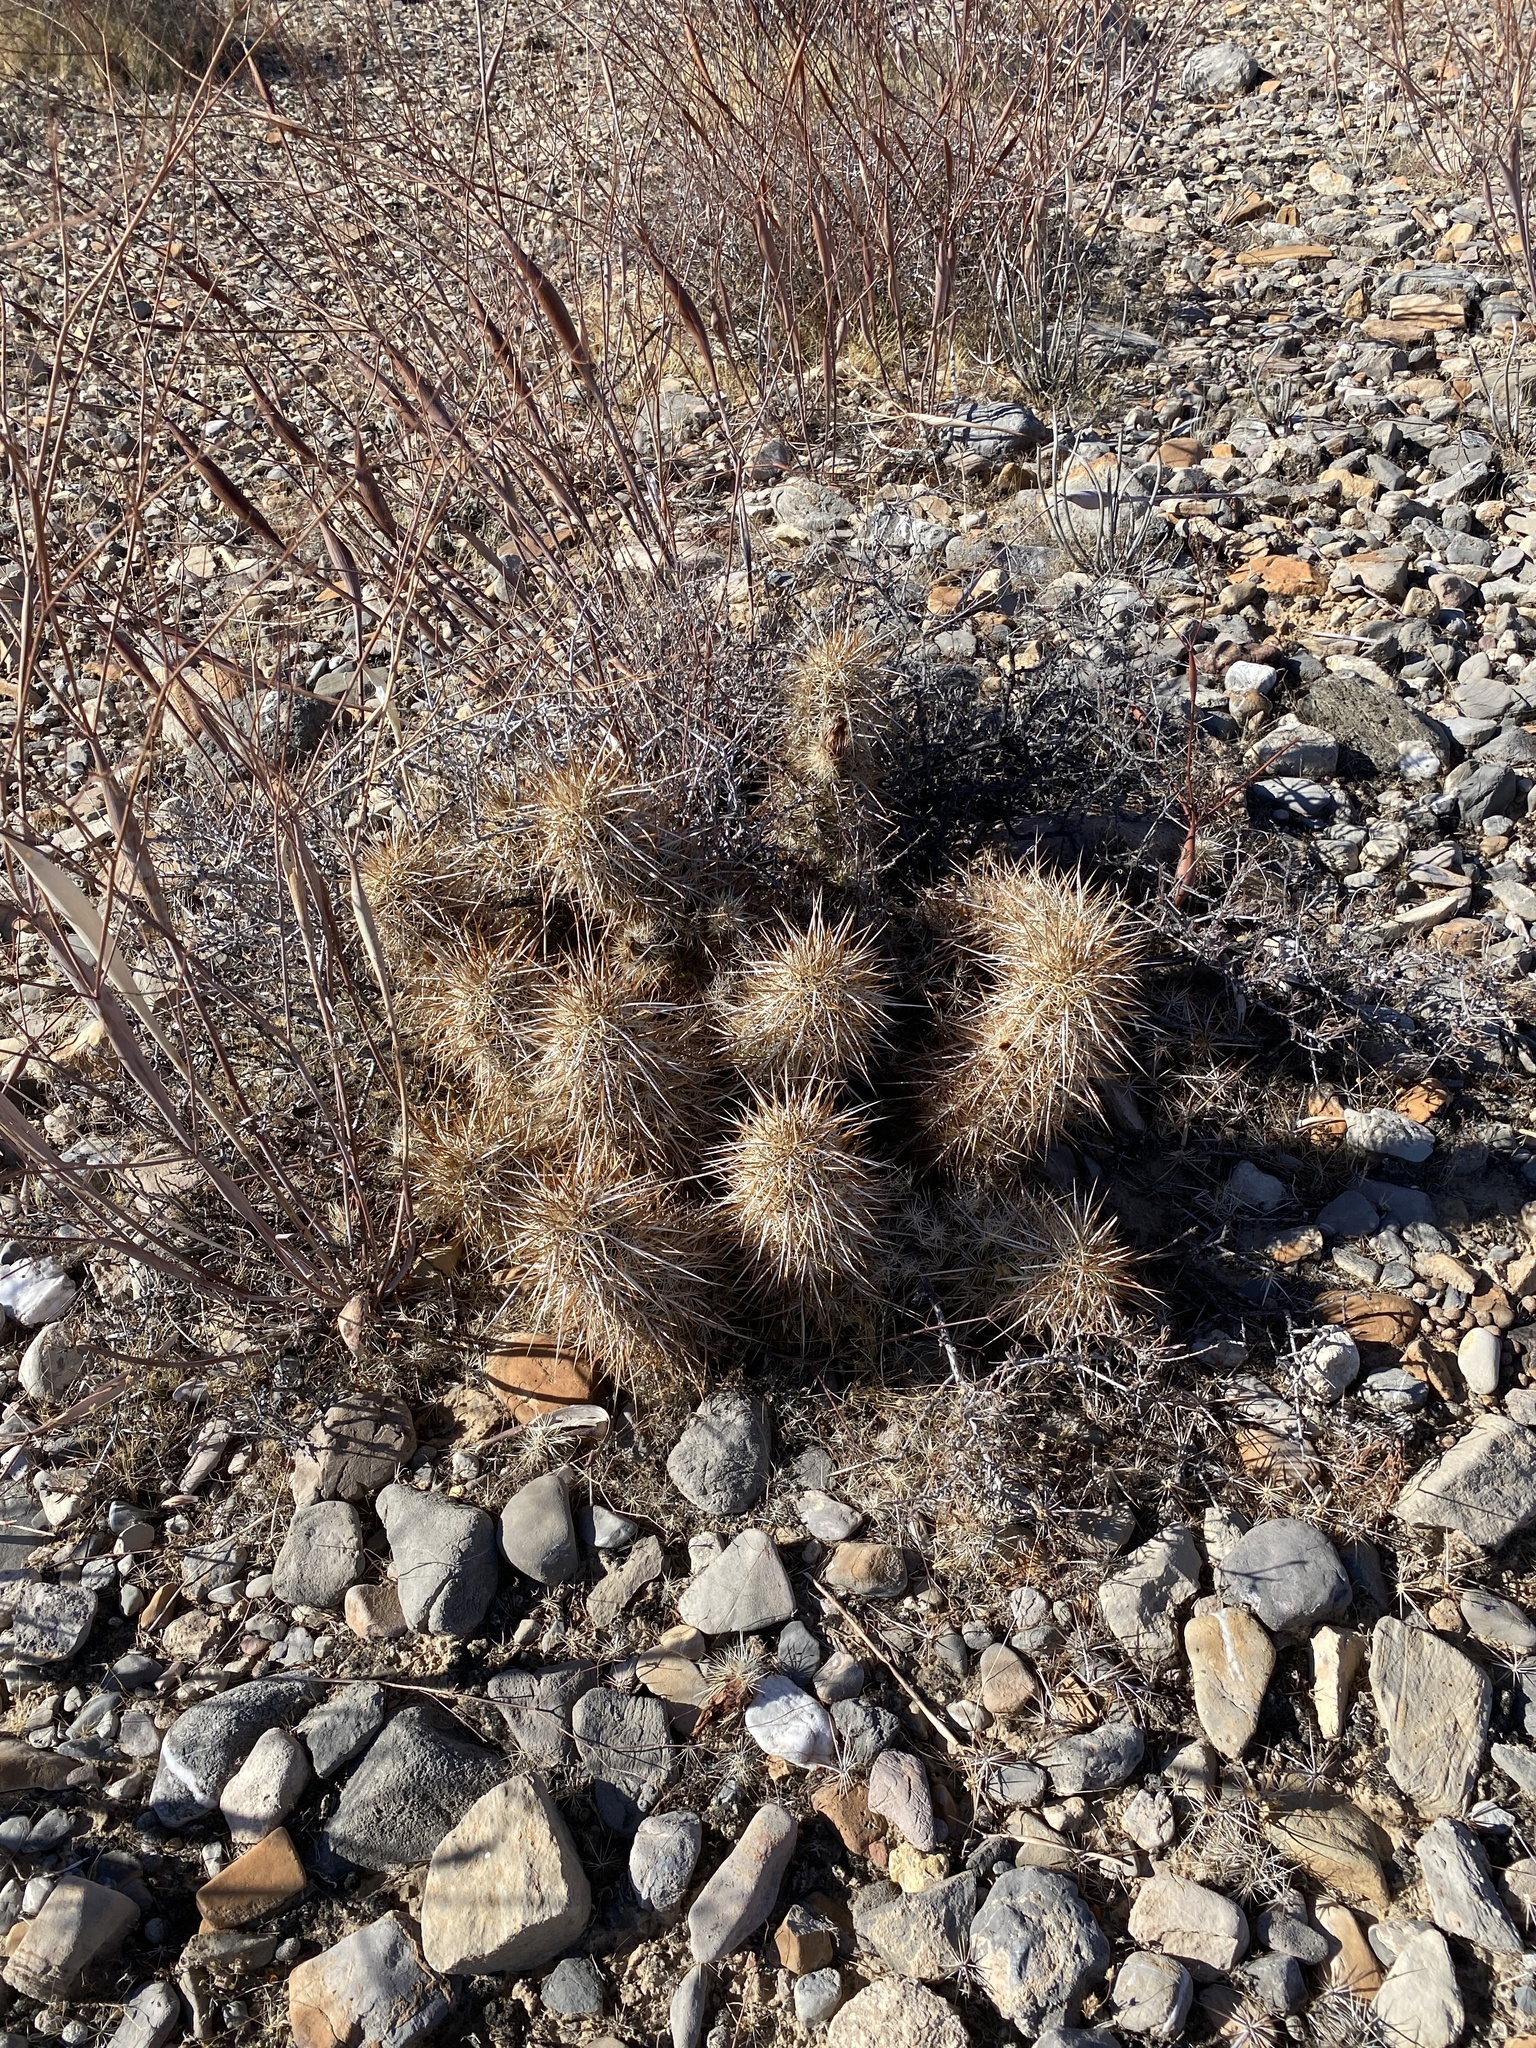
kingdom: Plantae
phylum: Tracheophyta
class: Magnoliopsida
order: Caryophyllales
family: Cactaceae
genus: Echinocereus
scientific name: Echinocereus engelmannii
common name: Engelmann's hedgehog cactus
